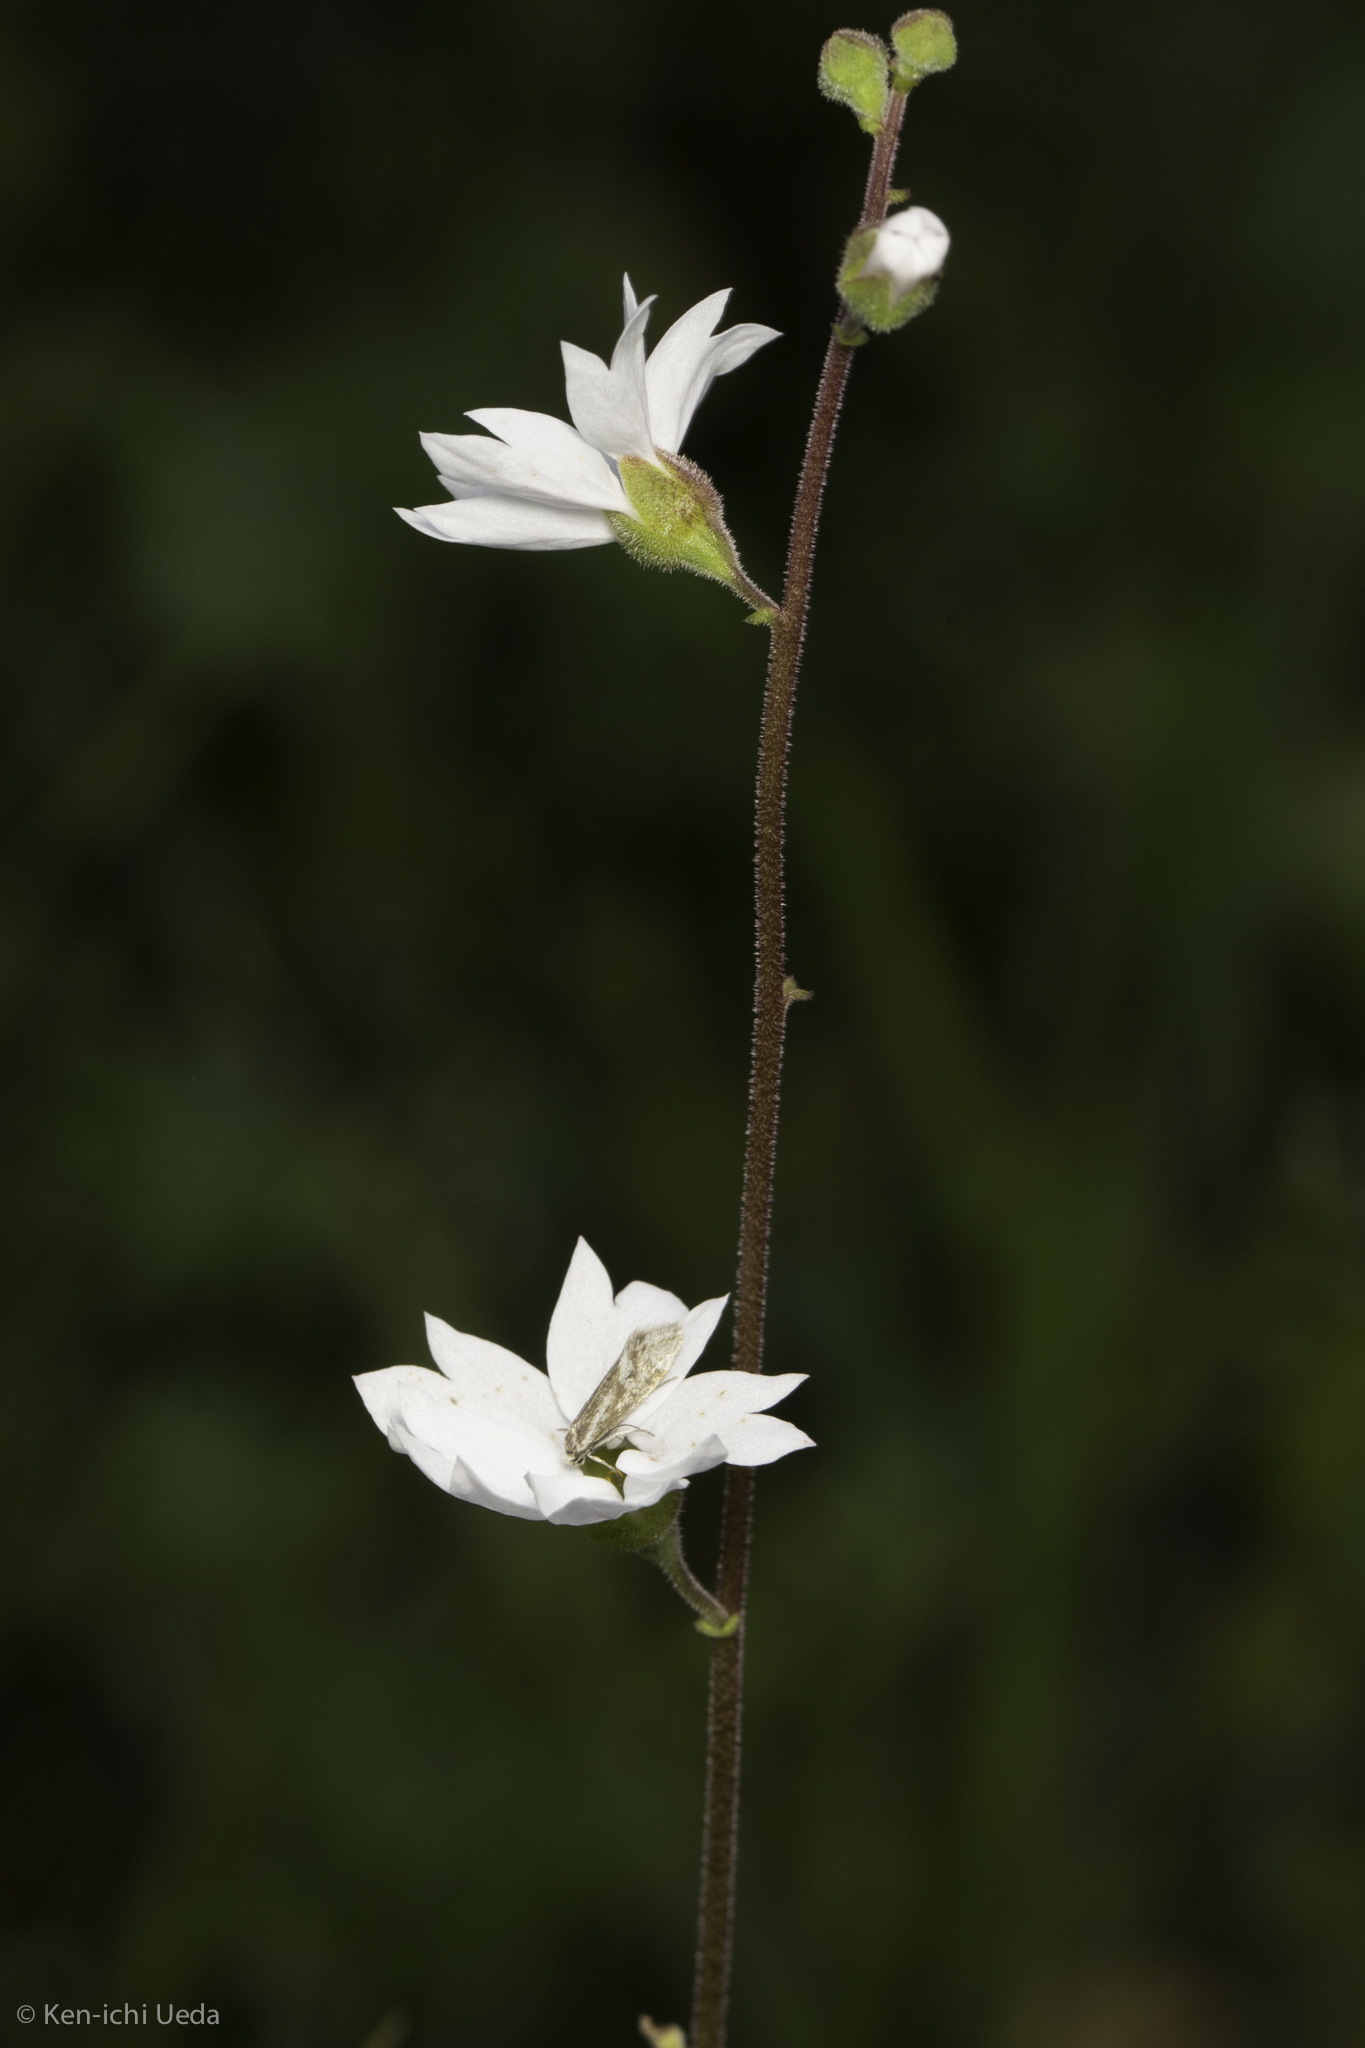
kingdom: Plantae
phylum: Tracheophyta
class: Magnoliopsida
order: Saxifragales
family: Saxifragaceae
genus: Lithophragma
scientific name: Lithophragma affine
